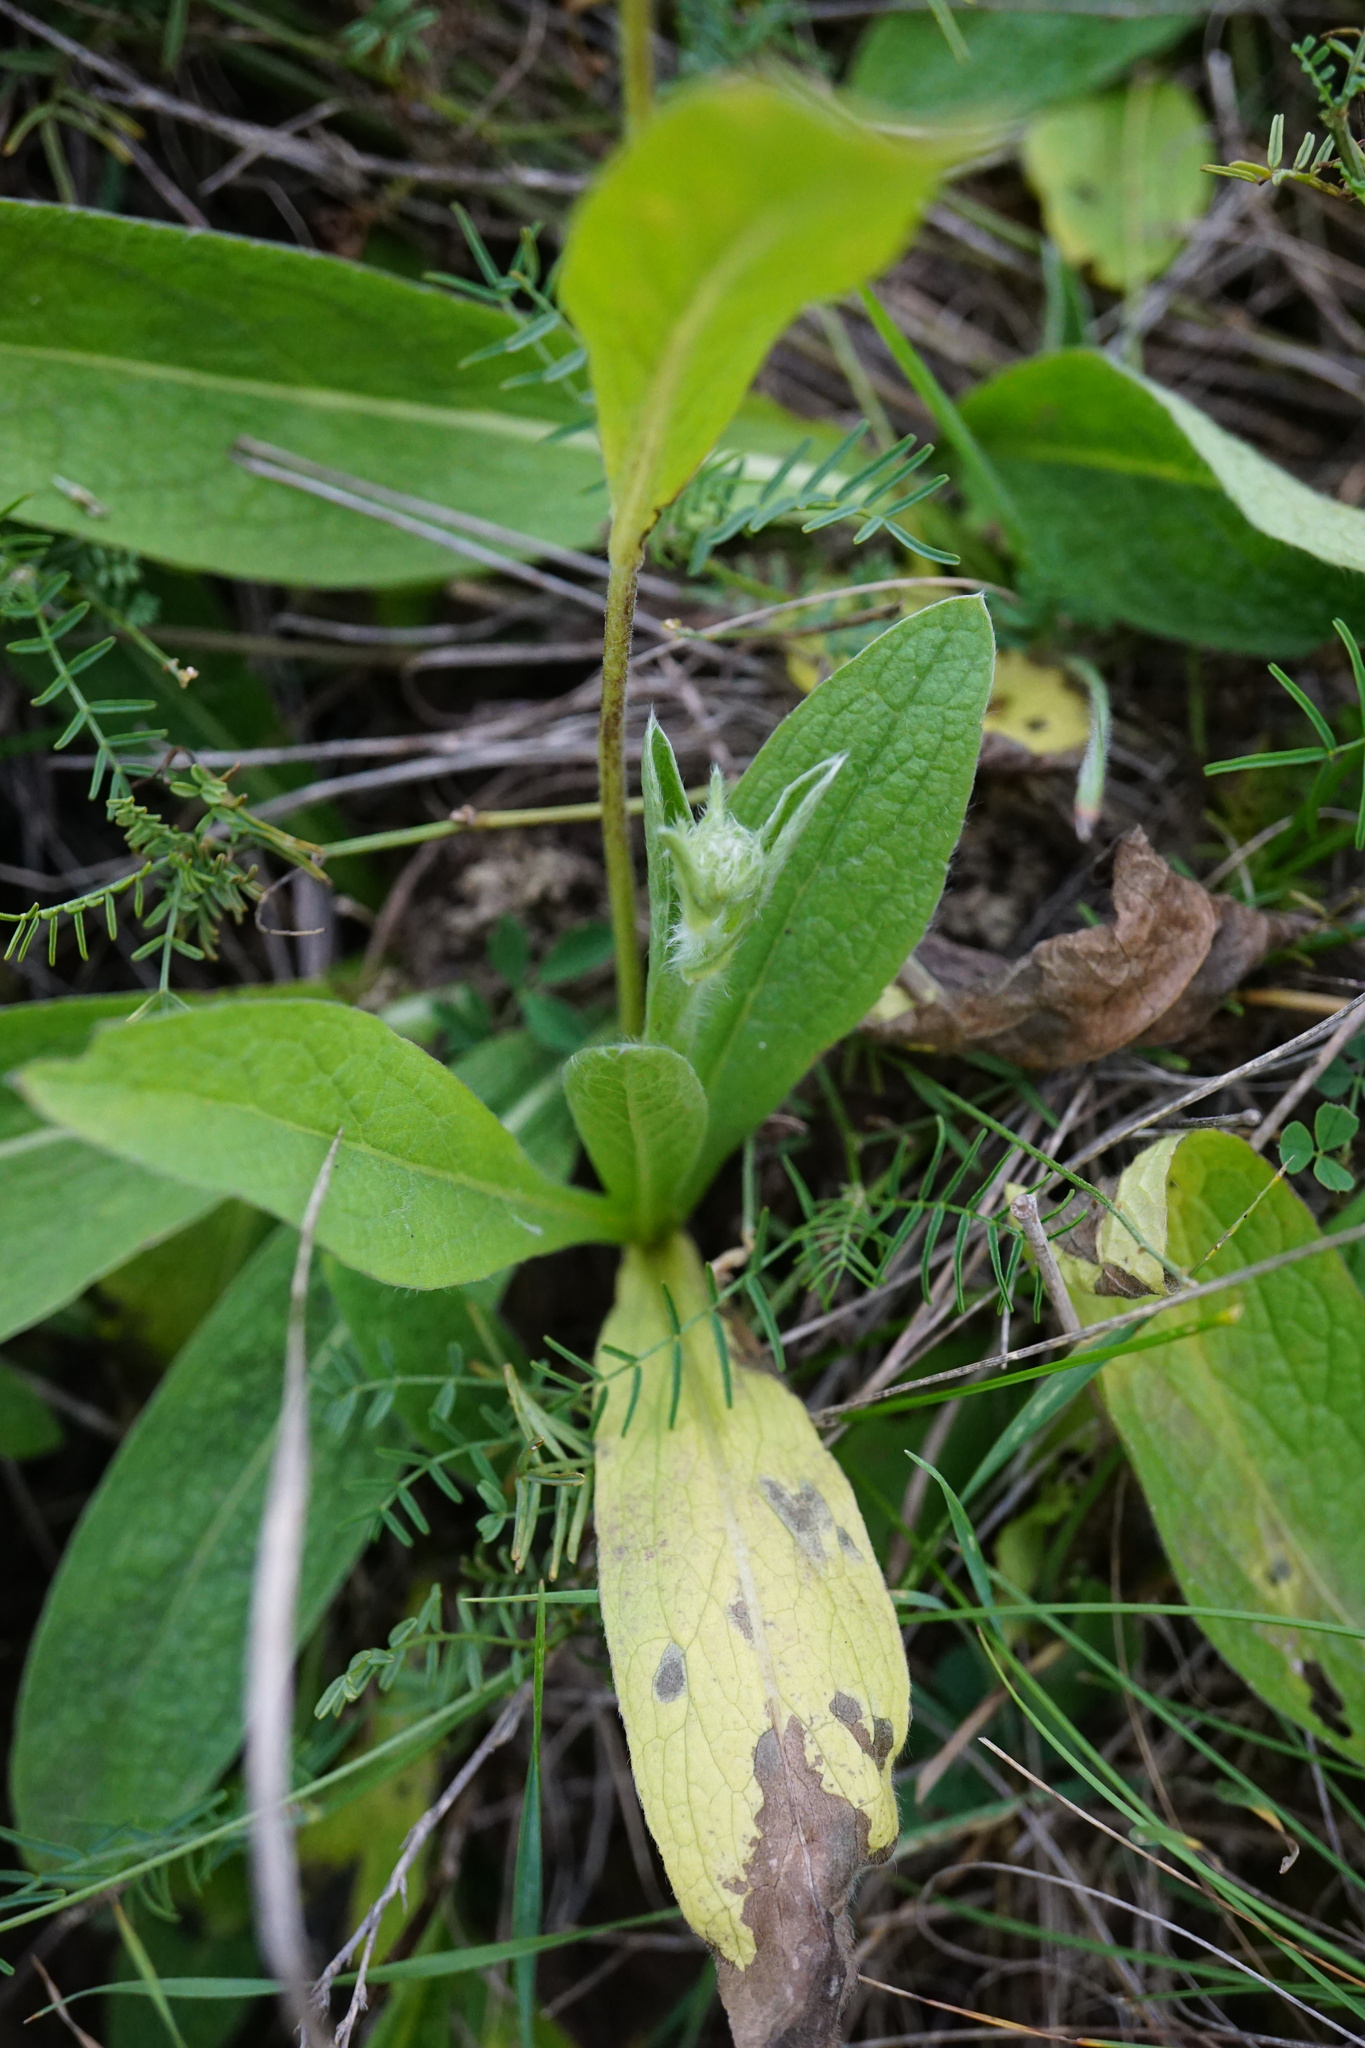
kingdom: Plantae
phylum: Tracheophyta
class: Magnoliopsida
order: Asterales
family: Asteraceae
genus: Pentanema
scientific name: Pentanema oculus-christi
